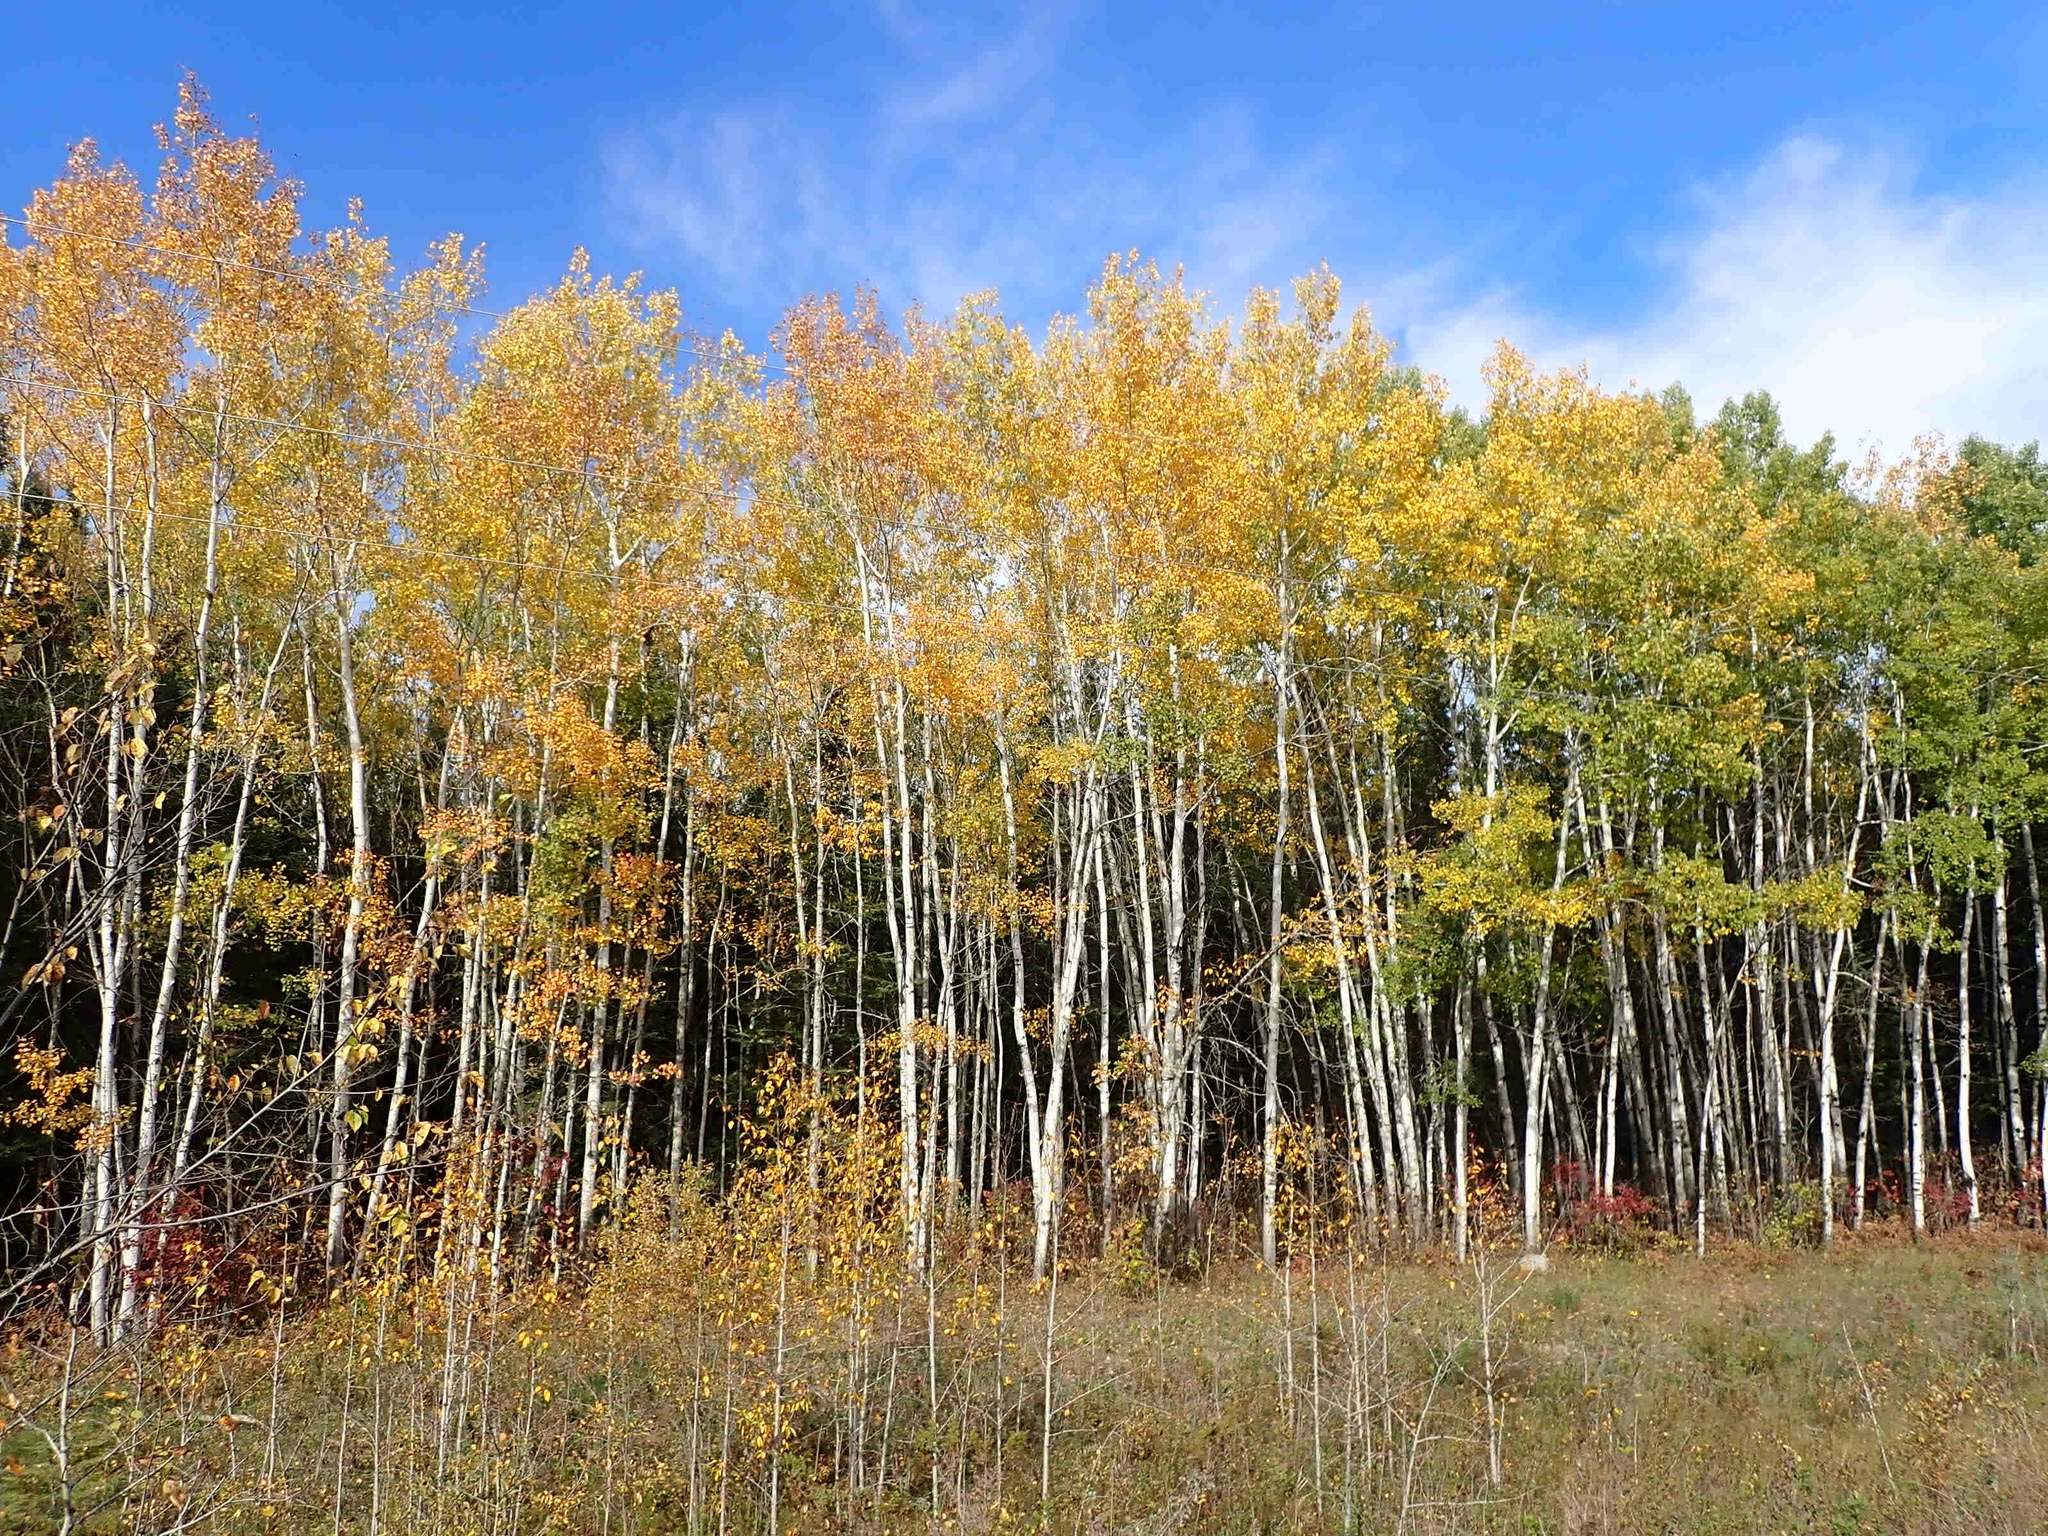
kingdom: Plantae
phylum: Tracheophyta
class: Magnoliopsida
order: Malpighiales
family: Salicaceae
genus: Populus
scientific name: Populus tremuloides
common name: Quaking aspen
